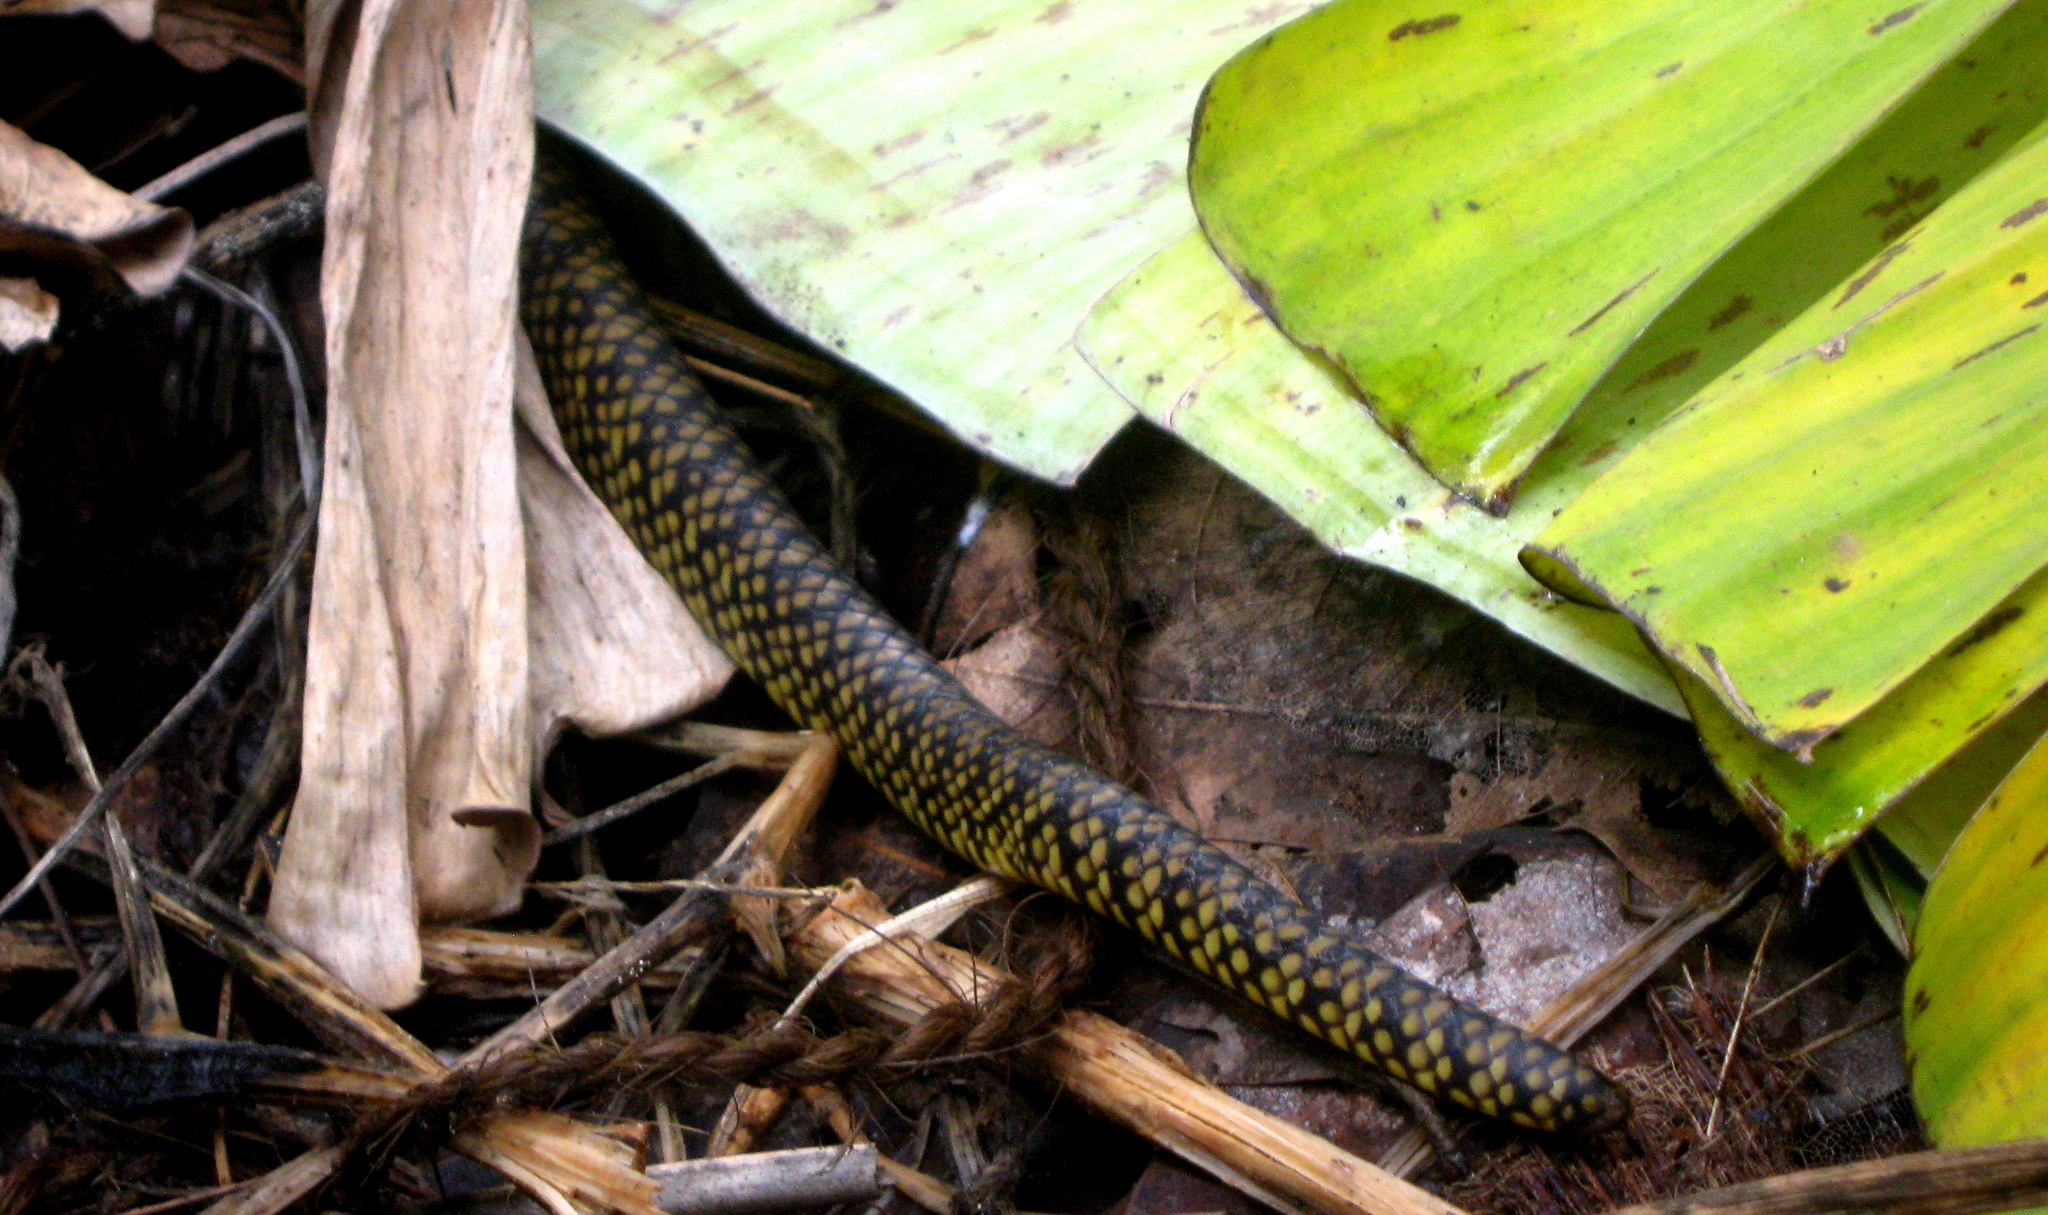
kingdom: Animalia
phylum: Chordata
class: Squamata
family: Colubridae
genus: Ptyas
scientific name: Ptyas mucosa
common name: Oriental ratsnake
